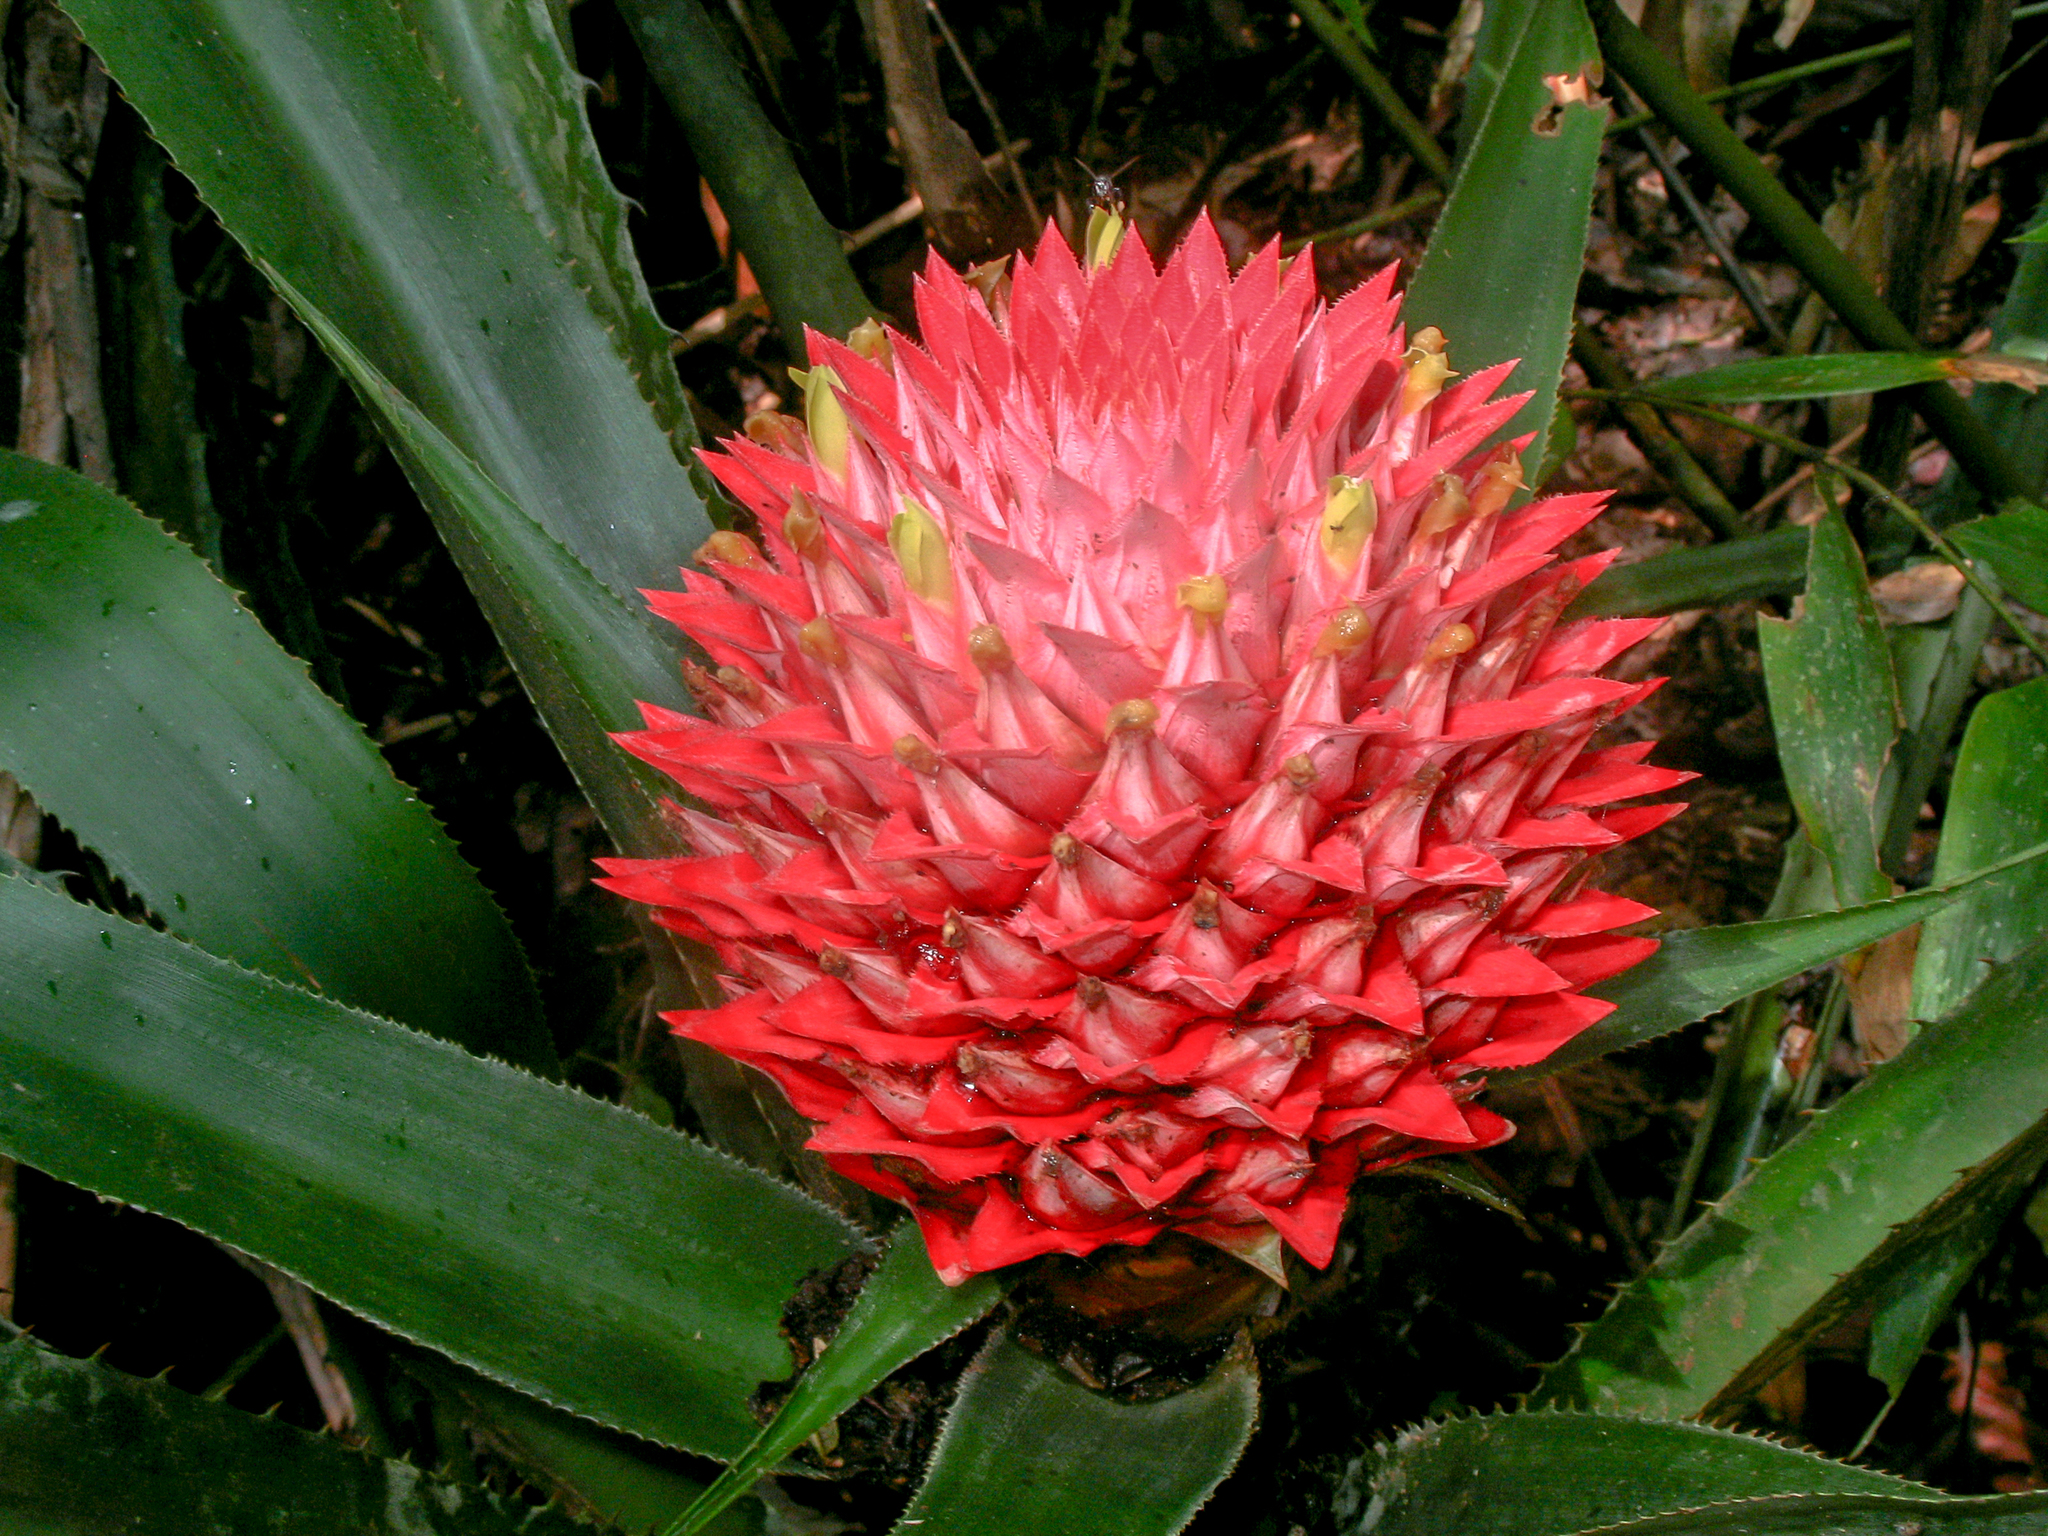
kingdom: Plantae
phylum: Tracheophyta
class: Liliopsida
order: Poales
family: Bromeliaceae
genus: Aechmea
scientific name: Aechmea fernandae
